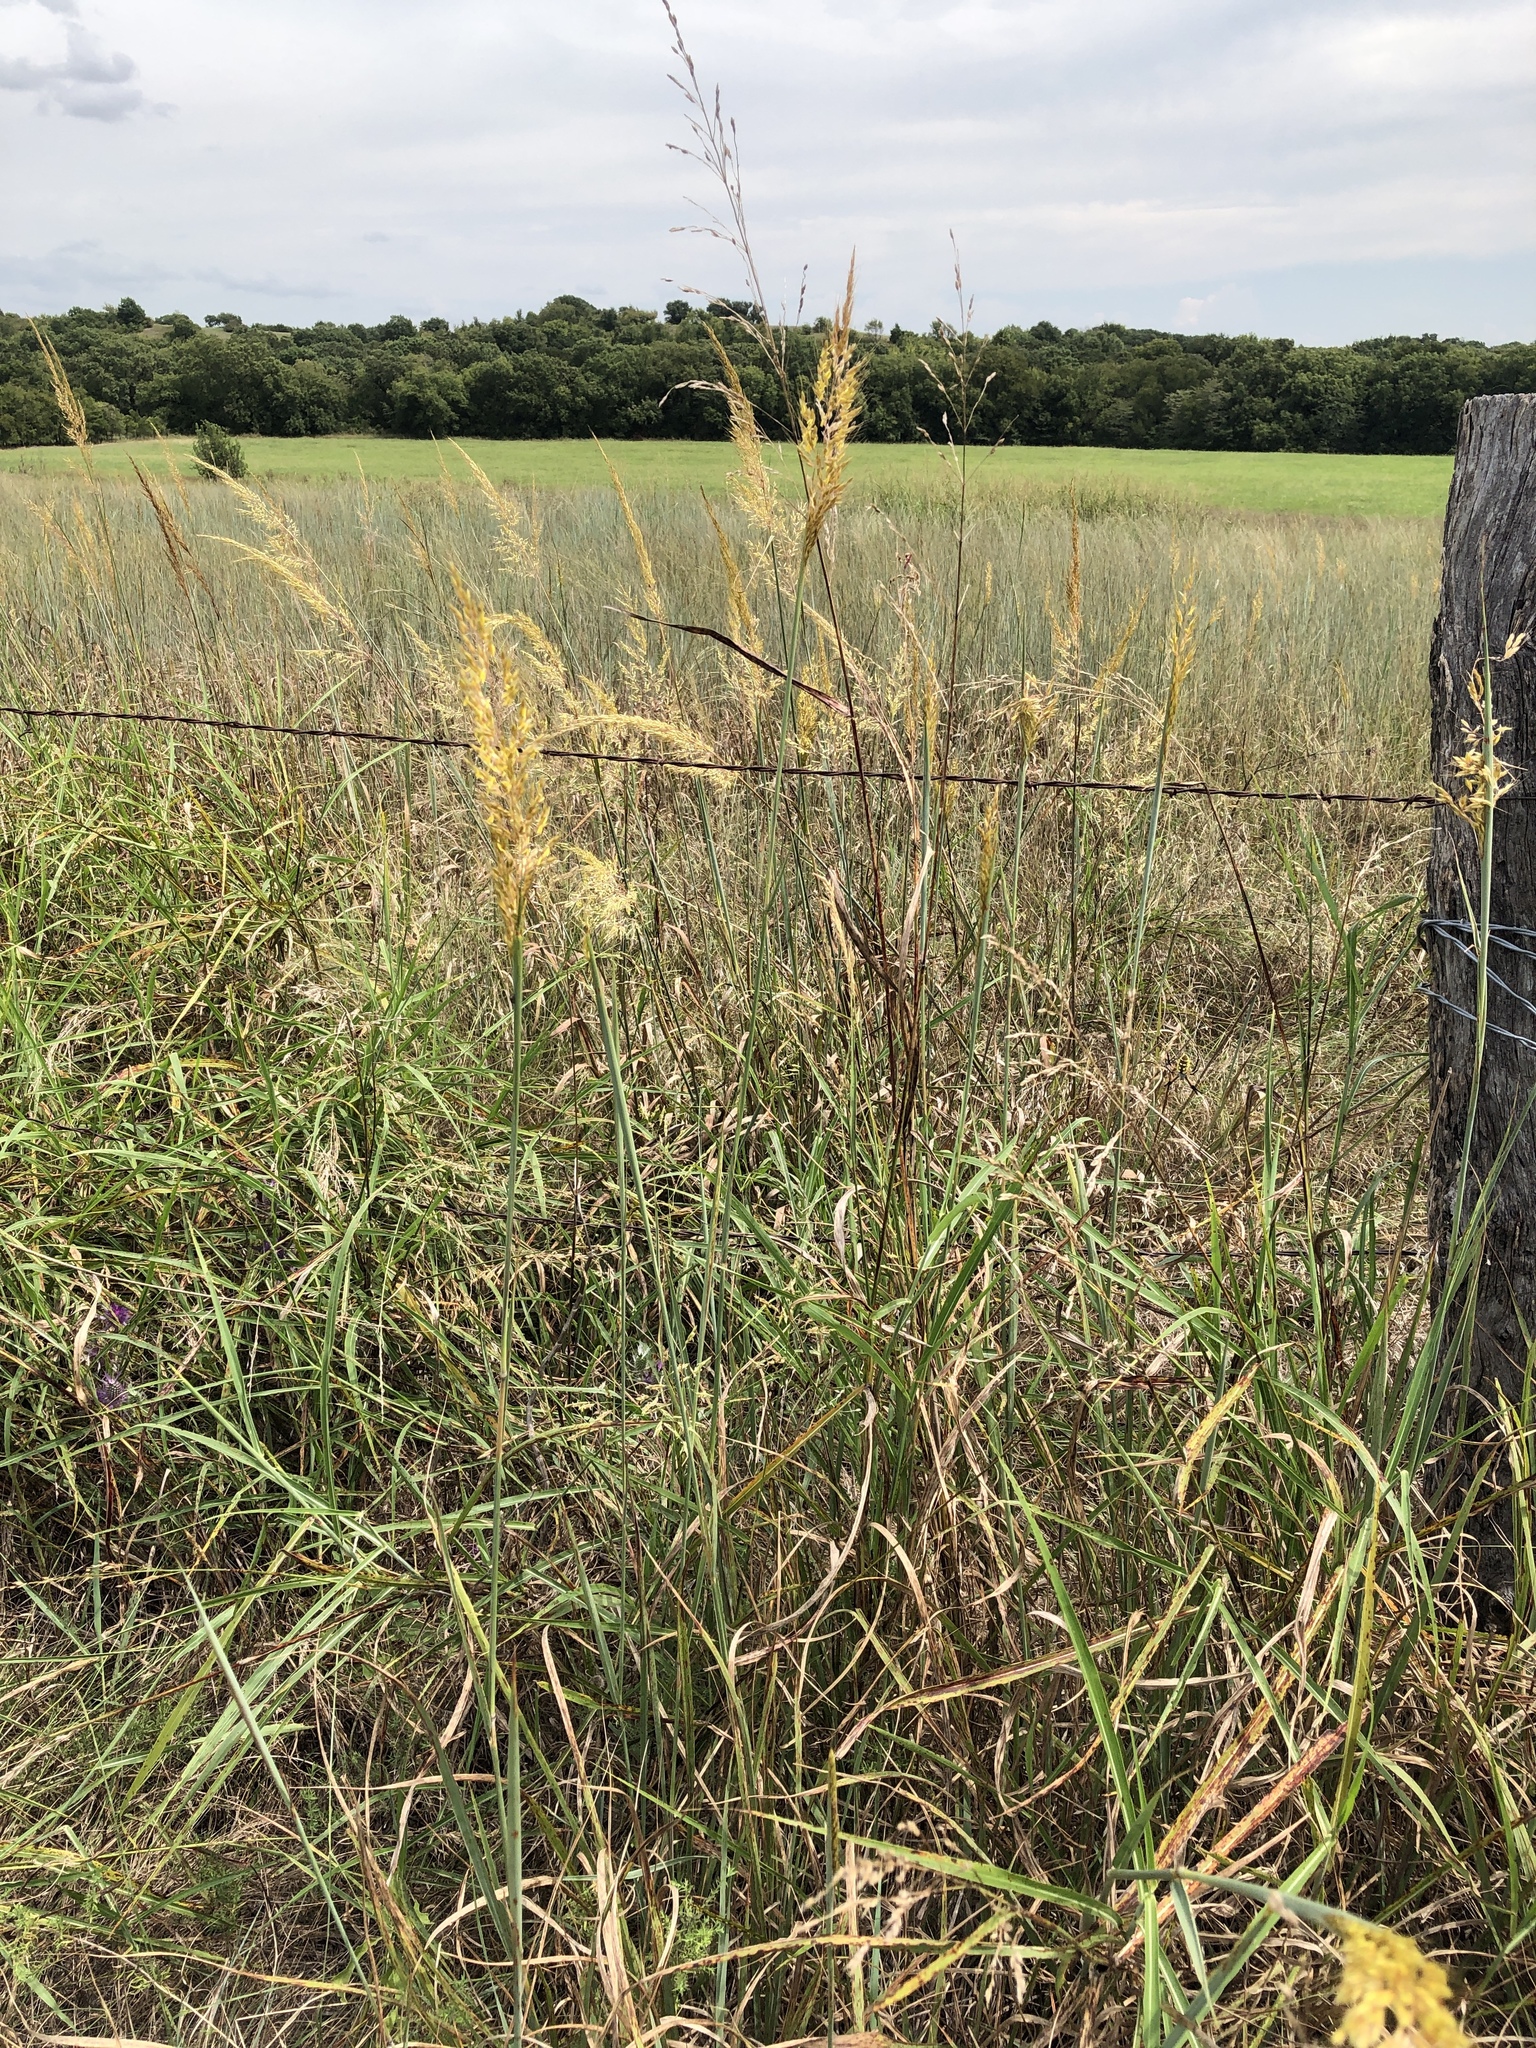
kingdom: Plantae
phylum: Tracheophyta
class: Liliopsida
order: Poales
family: Poaceae
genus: Sorghastrum
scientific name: Sorghastrum nutans
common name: Indian grass
